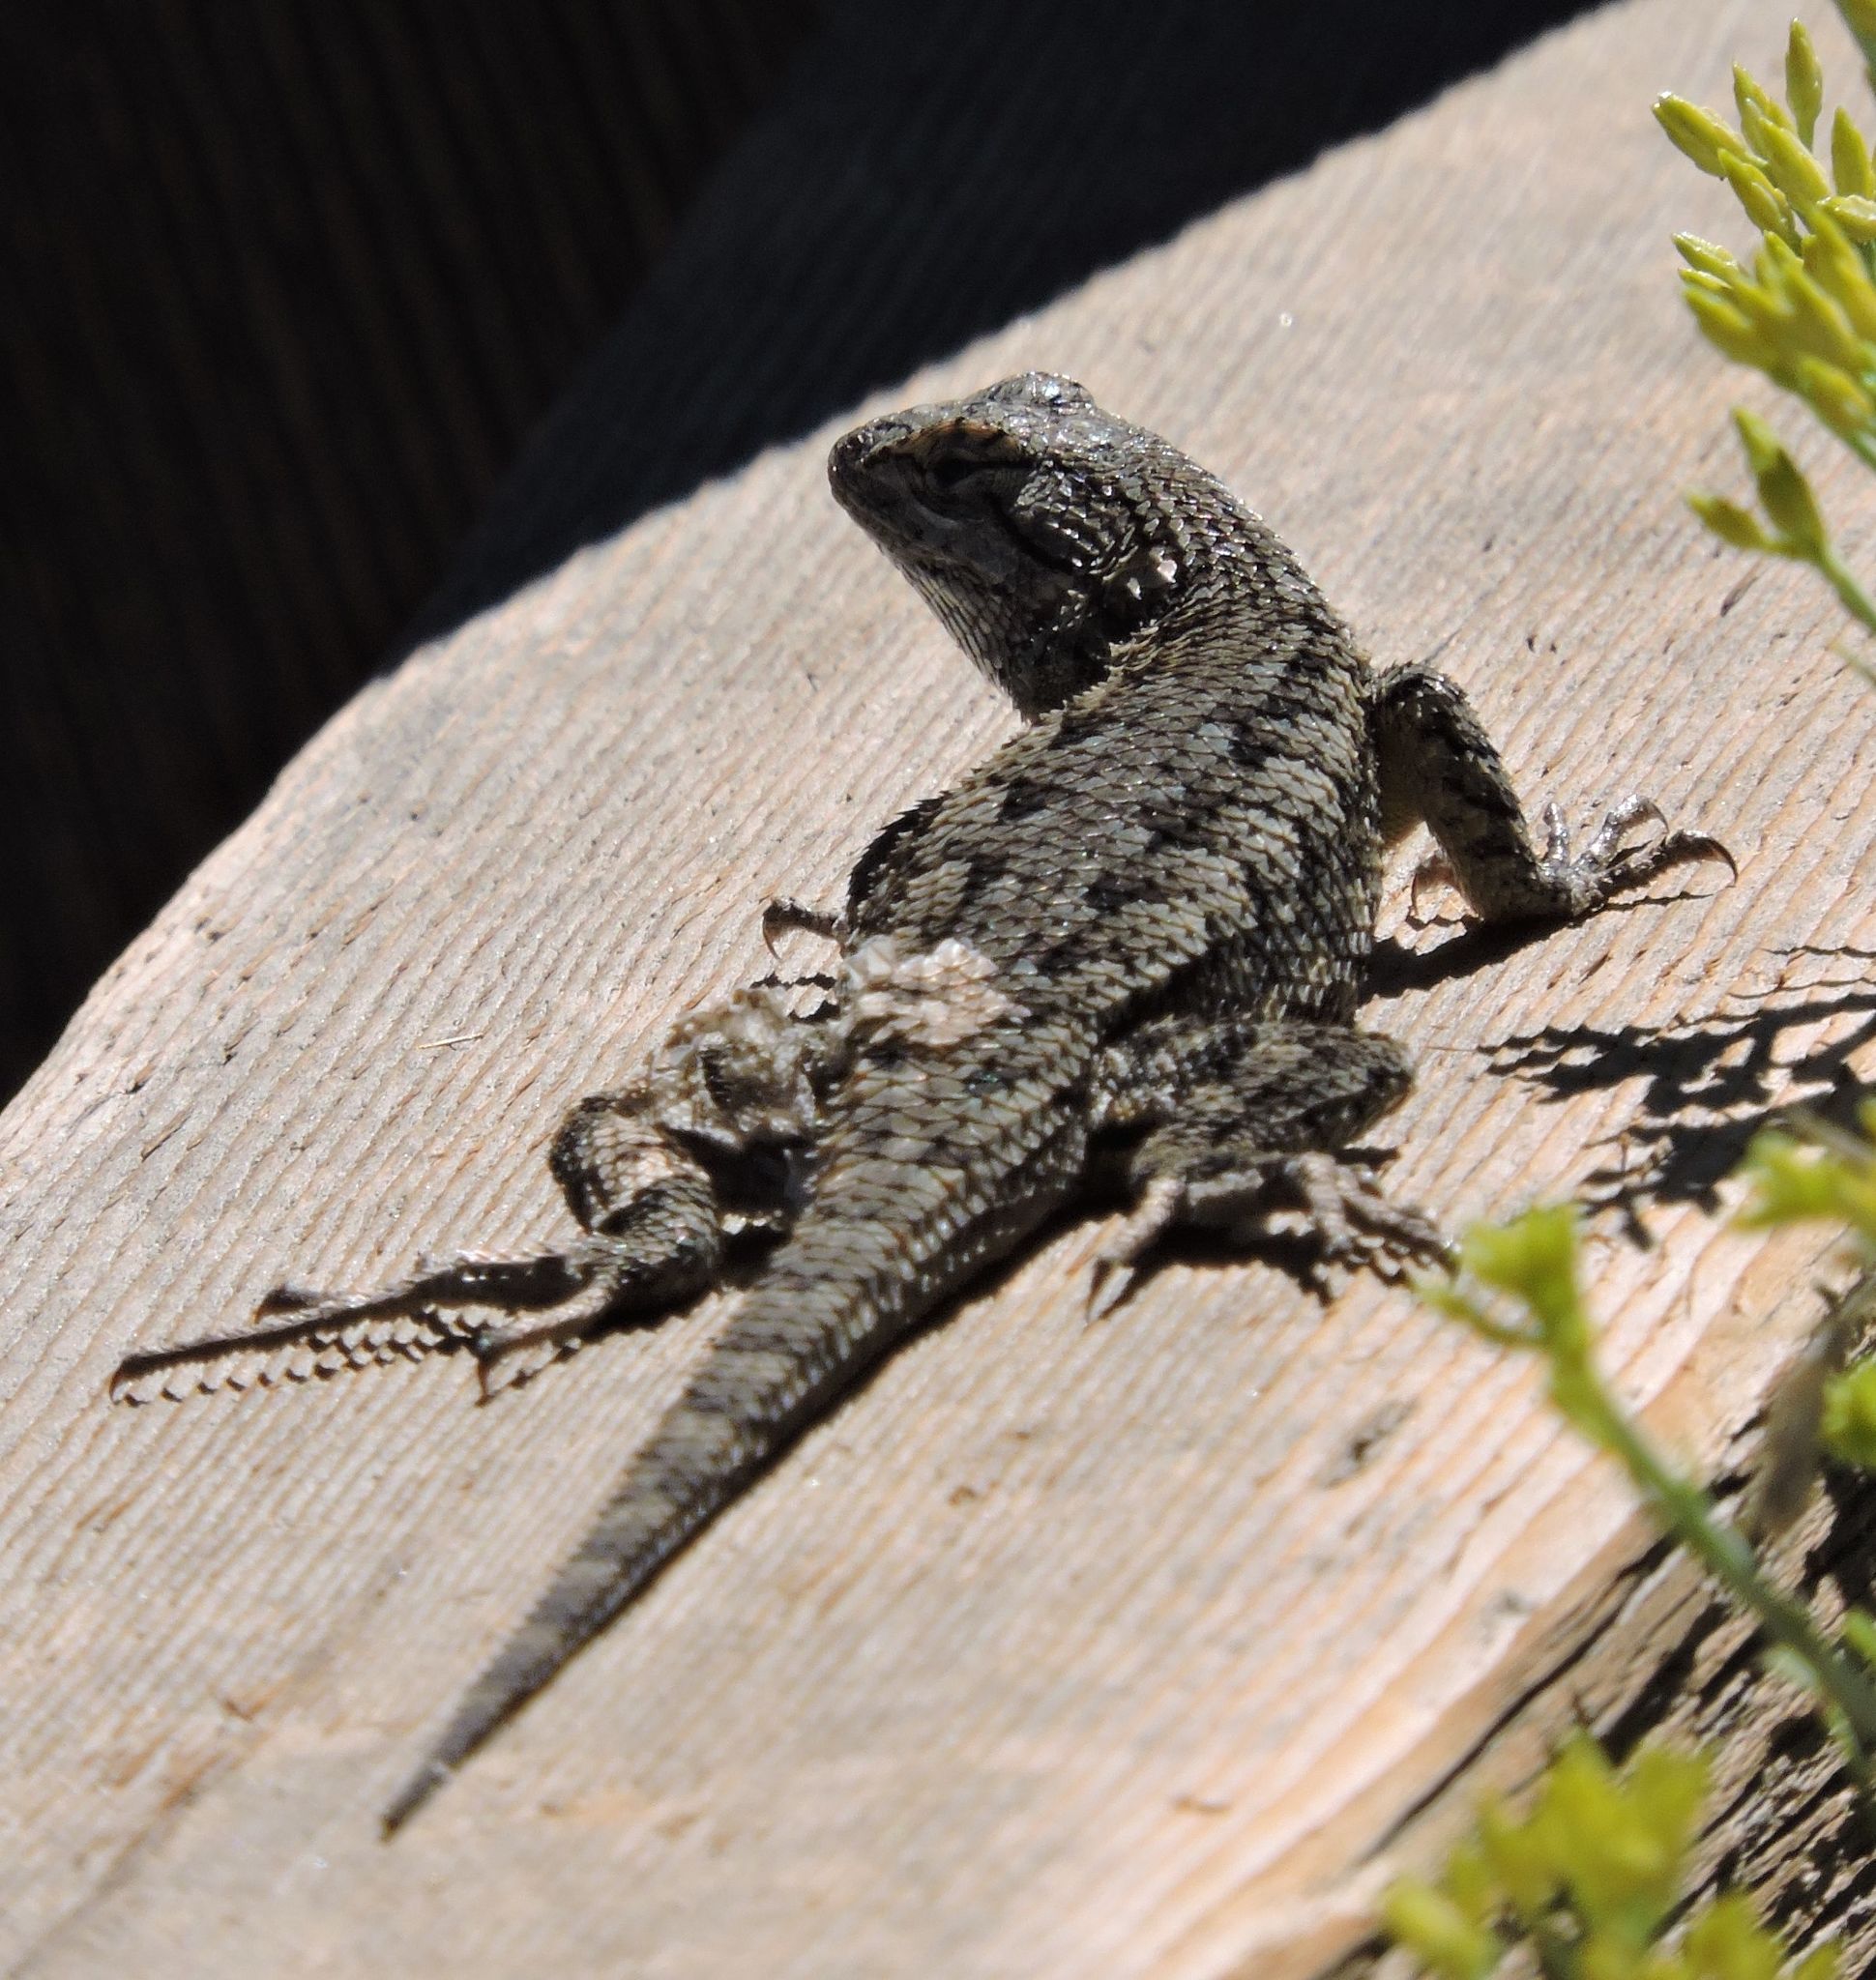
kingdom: Animalia
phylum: Chordata
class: Squamata
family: Phrynosomatidae
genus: Sceloporus
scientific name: Sceloporus occidentalis
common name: Western fence lizard
